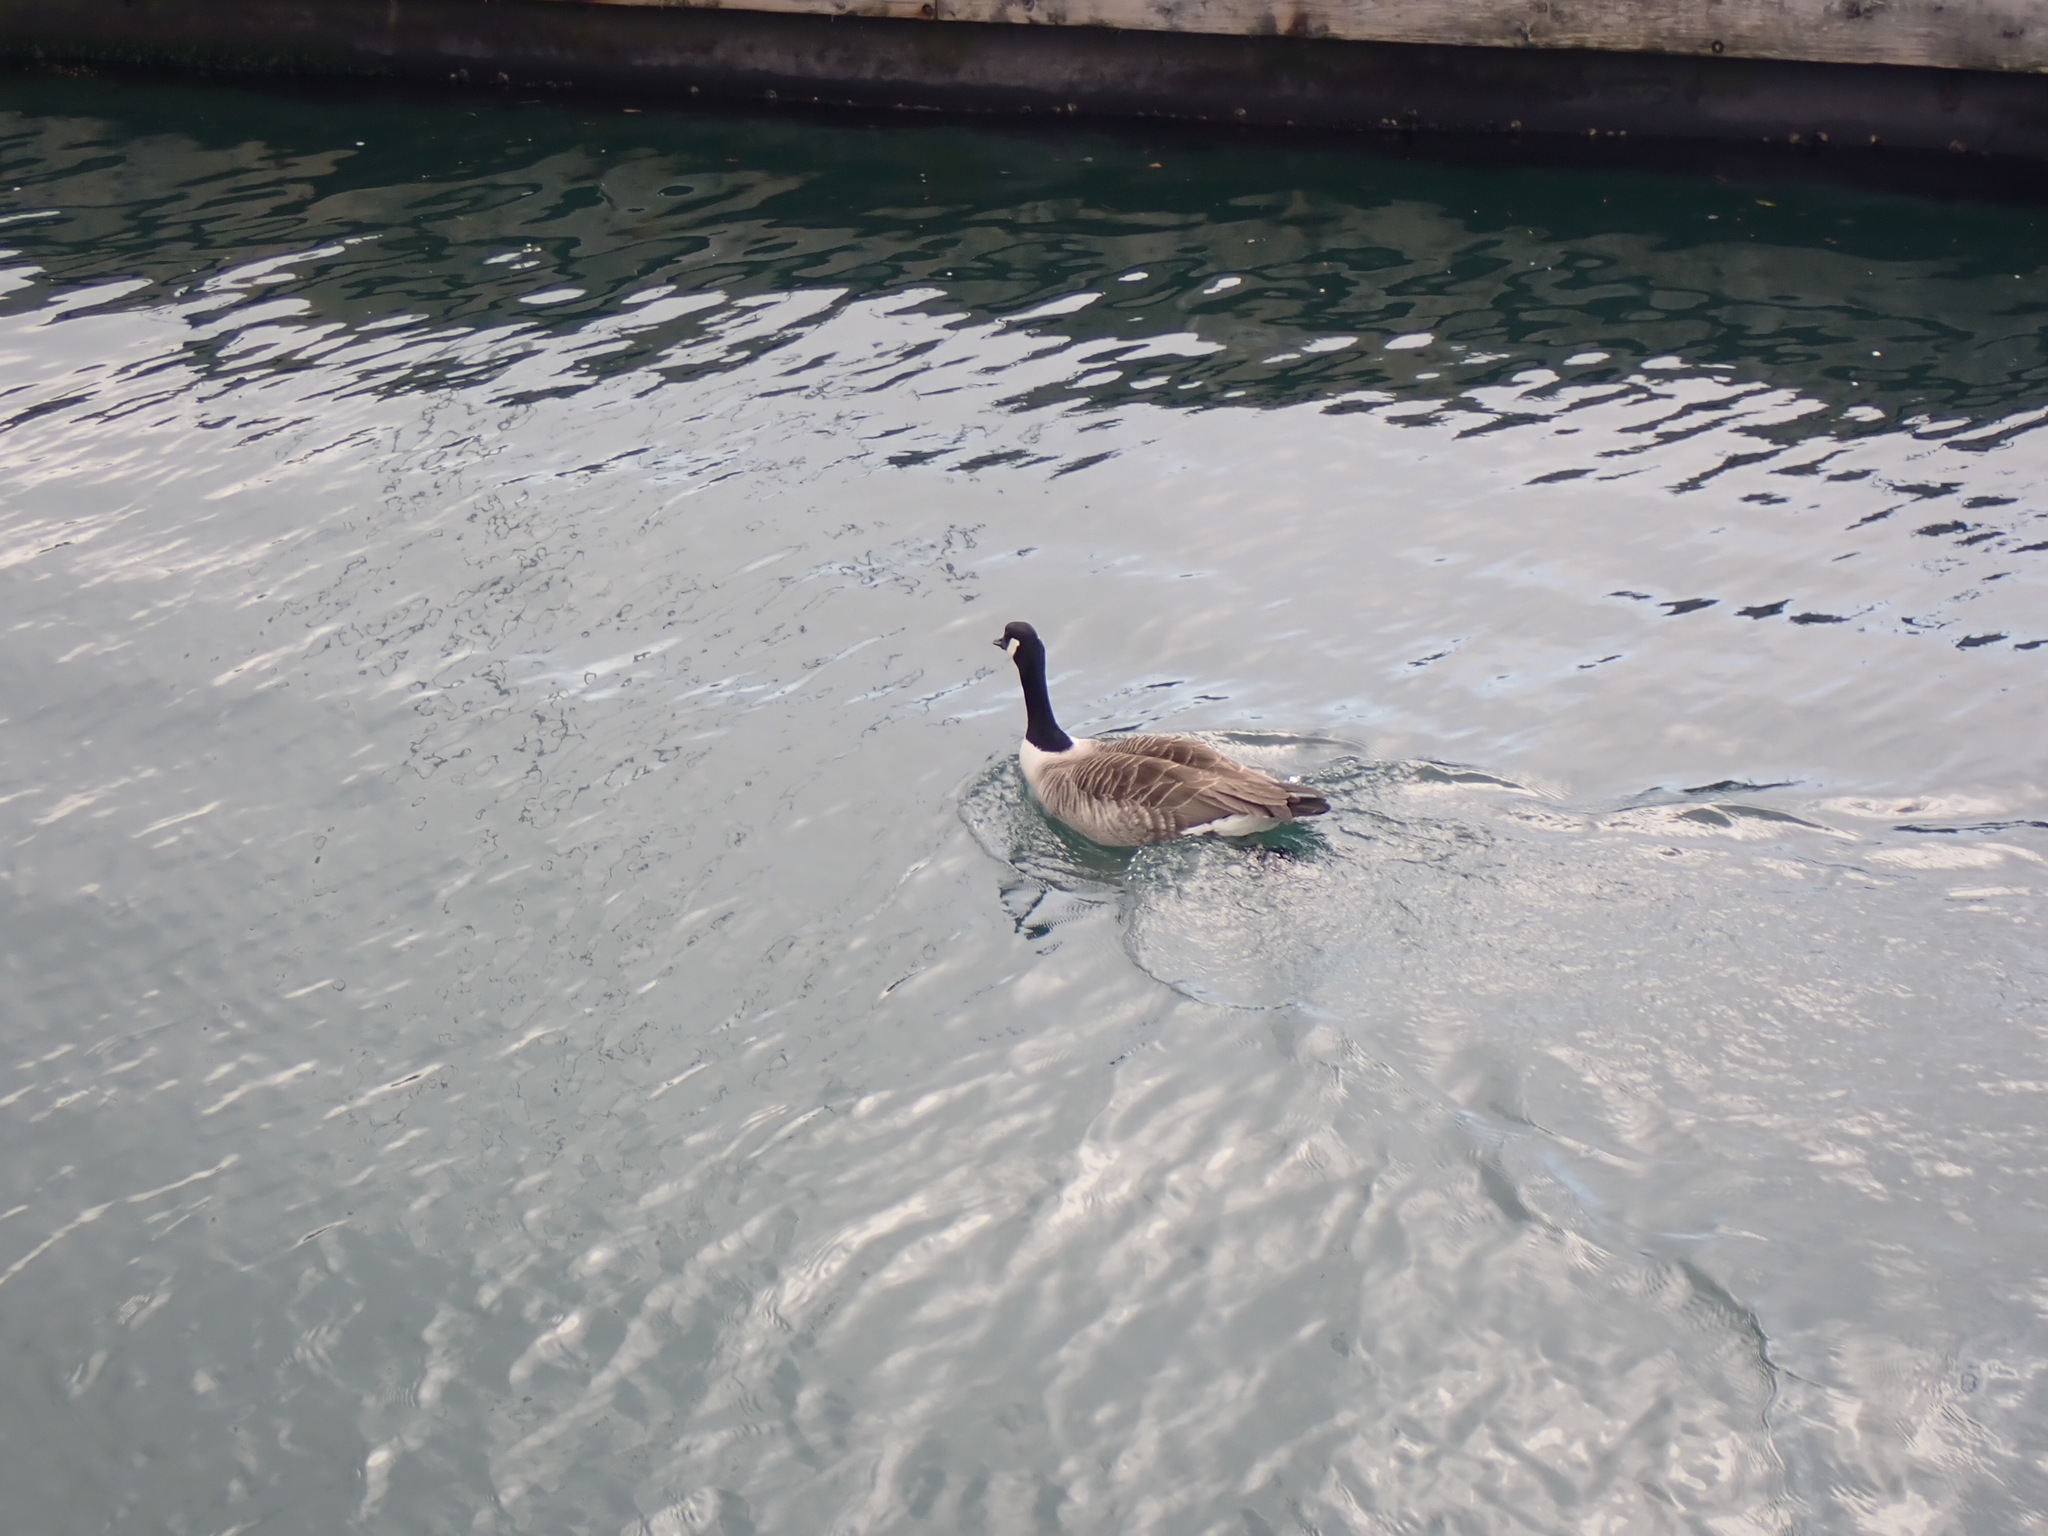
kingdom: Animalia
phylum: Chordata
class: Aves
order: Anseriformes
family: Anatidae
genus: Branta
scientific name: Branta canadensis
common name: Canada goose
